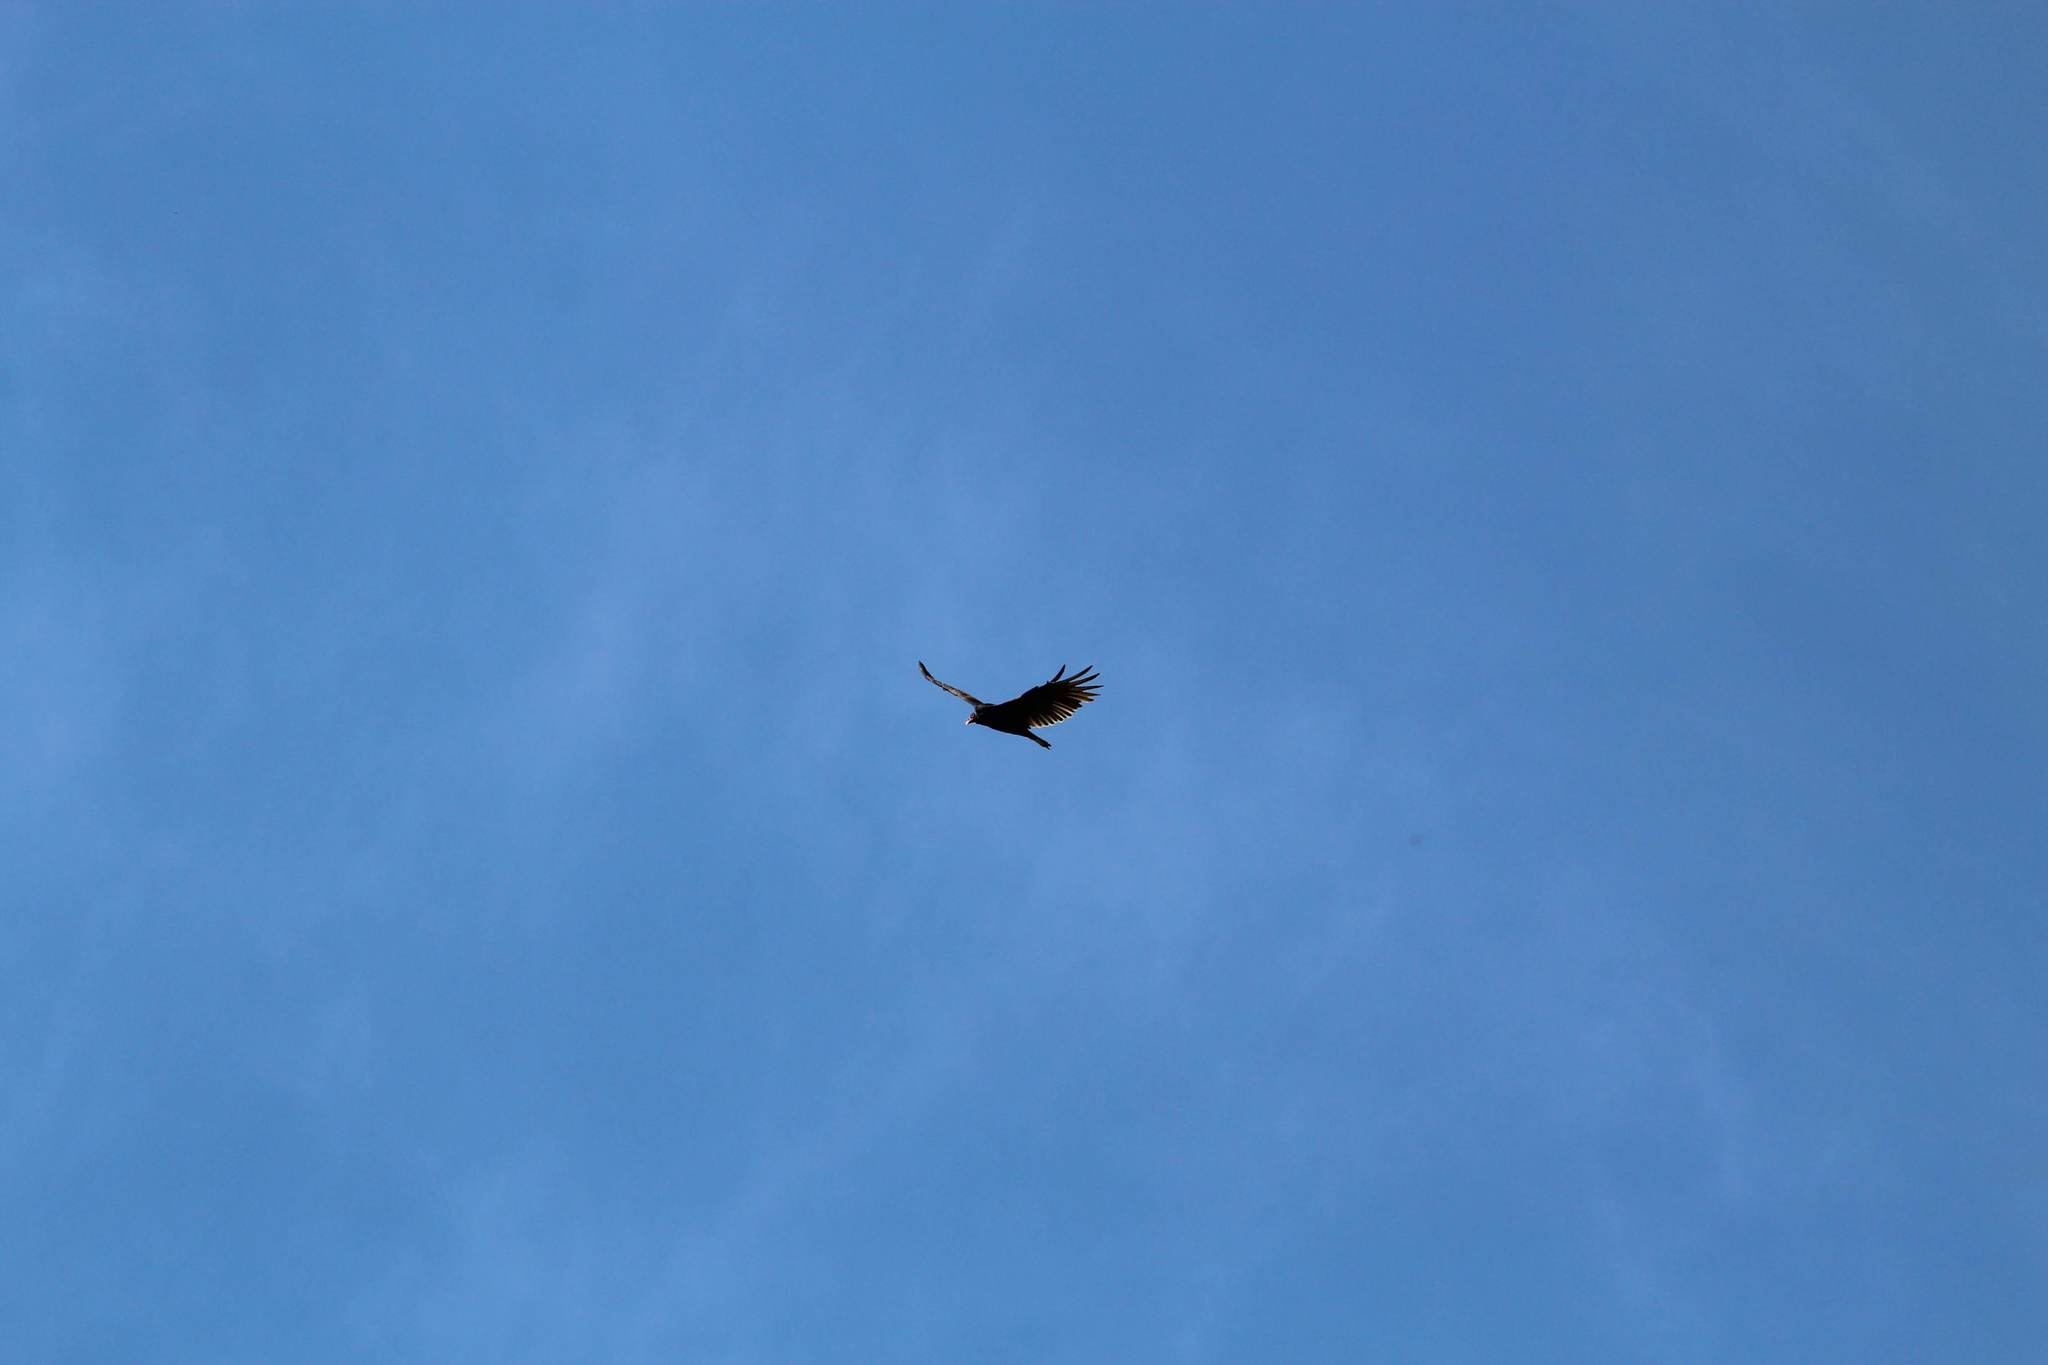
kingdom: Animalia
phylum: Chordata
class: Aves
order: Accipitriformes
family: Cathartidae
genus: Cathartes
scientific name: Cathartes aura
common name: Turkey vulture
